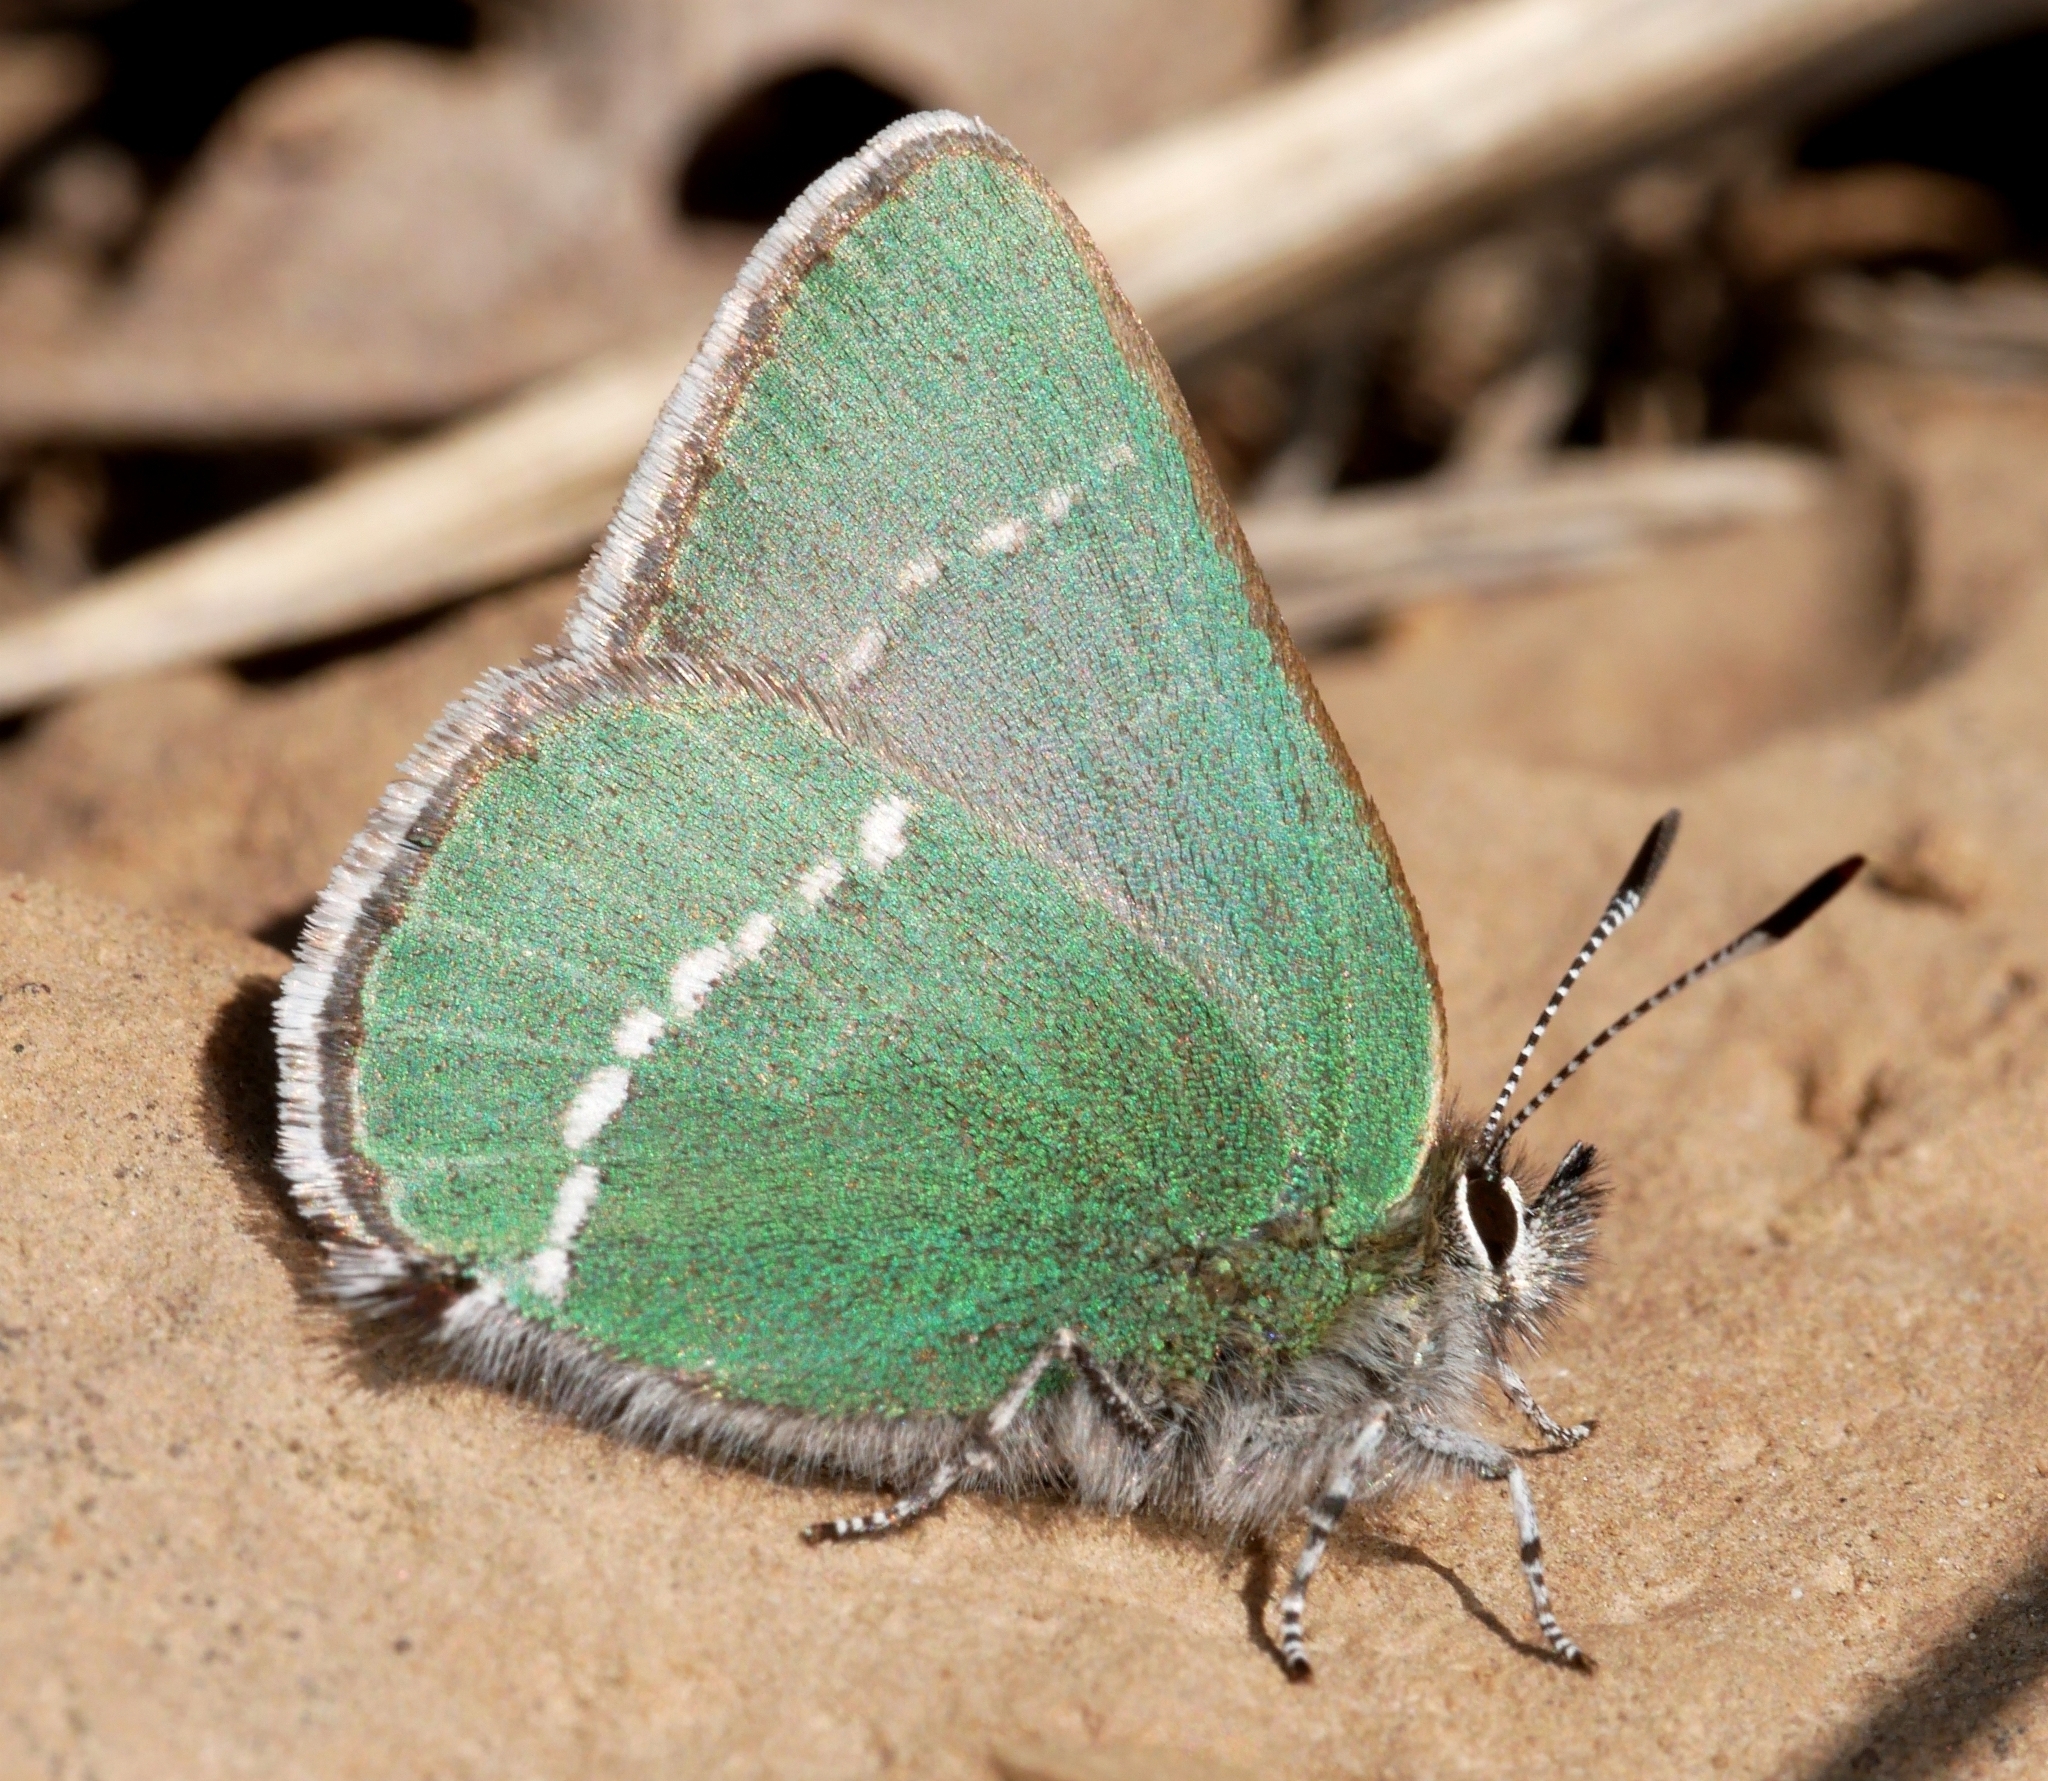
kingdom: Animalia
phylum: Arthropoda
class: Insecta
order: Lepidoptera
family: Lycaenidae
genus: Thecla
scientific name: Thecla sheridanii
